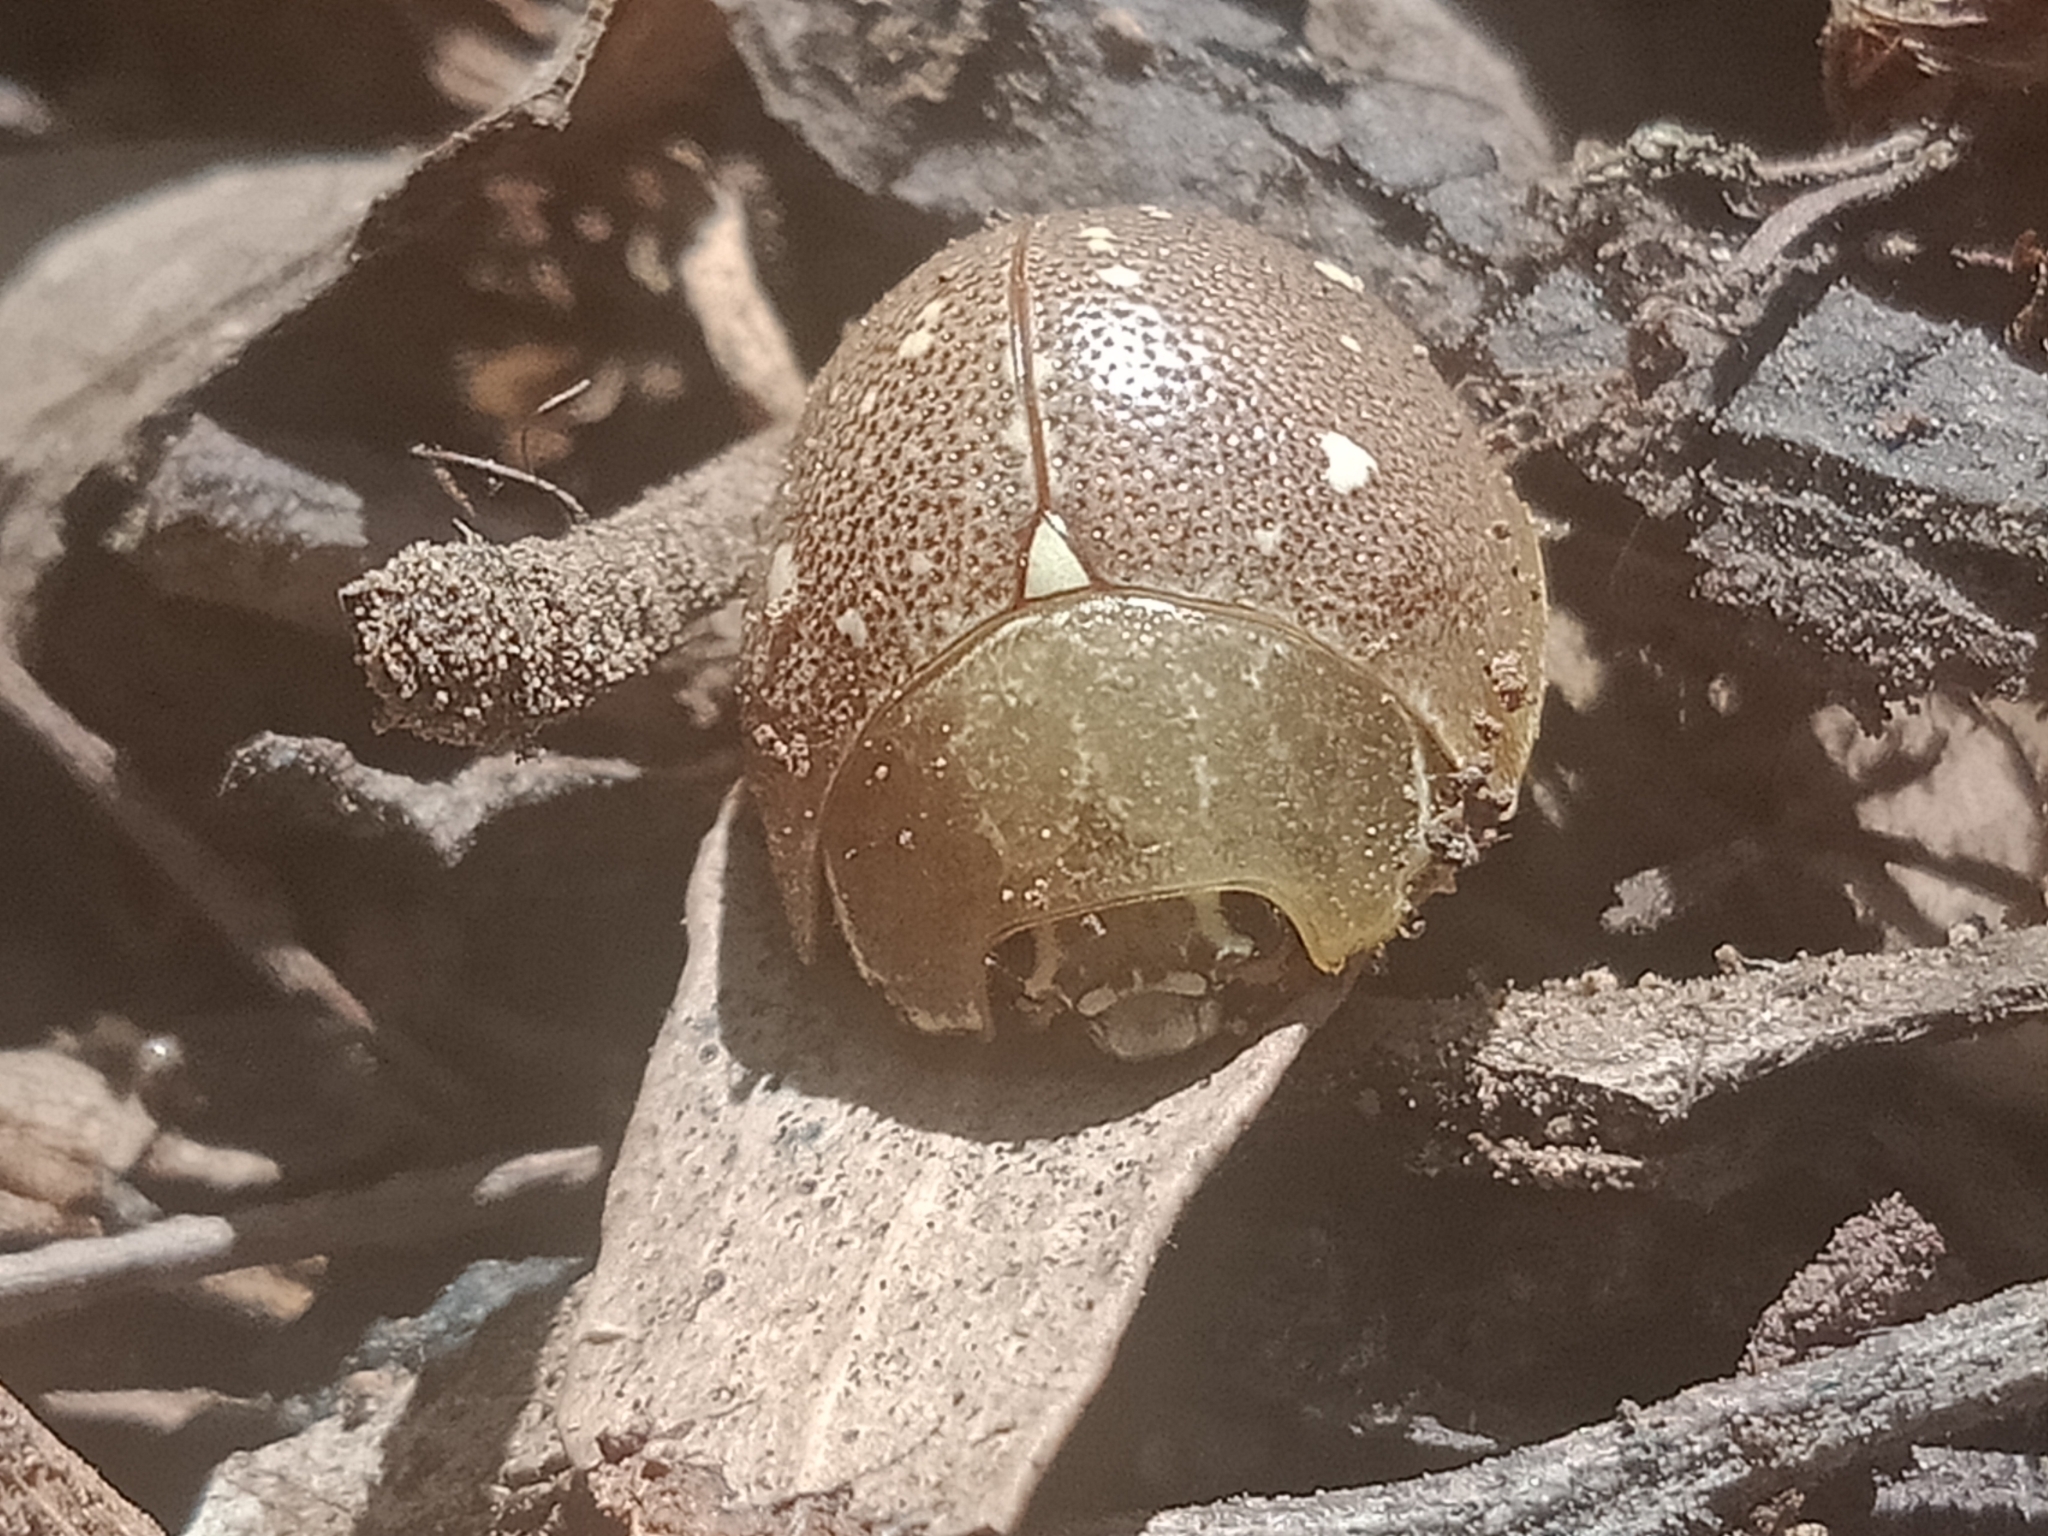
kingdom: Animalia
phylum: Arthropoda
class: Insecta
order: Coleoptera
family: Chrysomelidae
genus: Paropsis
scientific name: Paropsis
